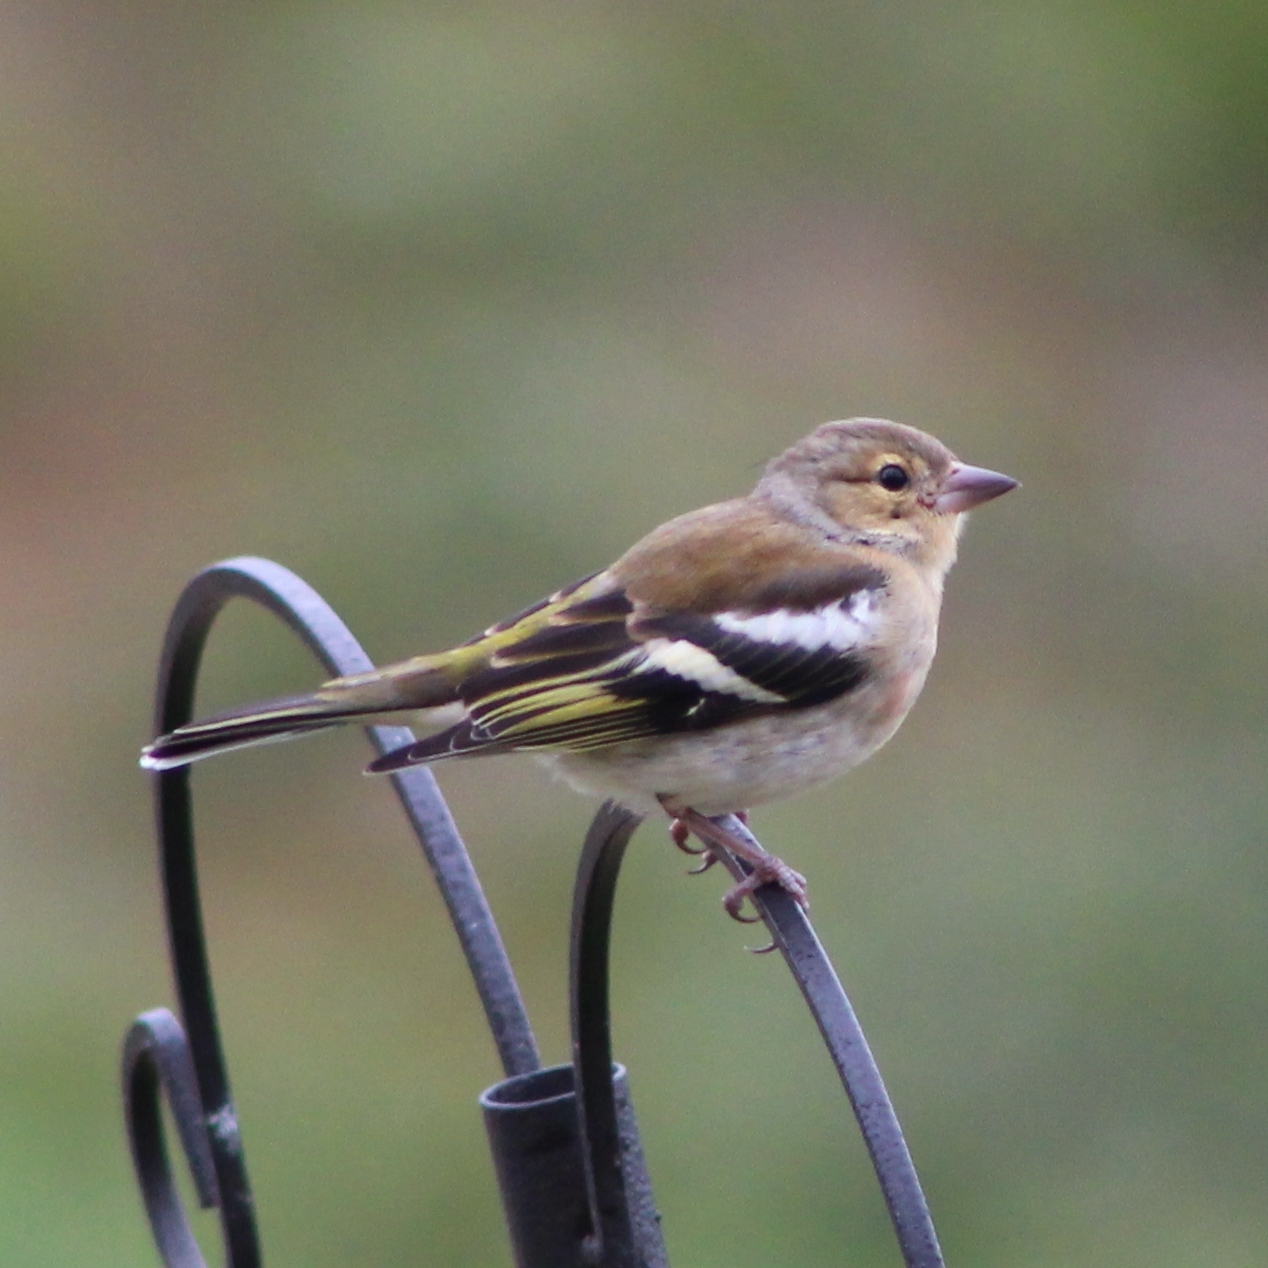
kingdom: Animalia
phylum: Chordata
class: Aves
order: Passeriformes
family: Fringillidae
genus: Fringilla
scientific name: Fringilla coelebs
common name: Common chaffinch
